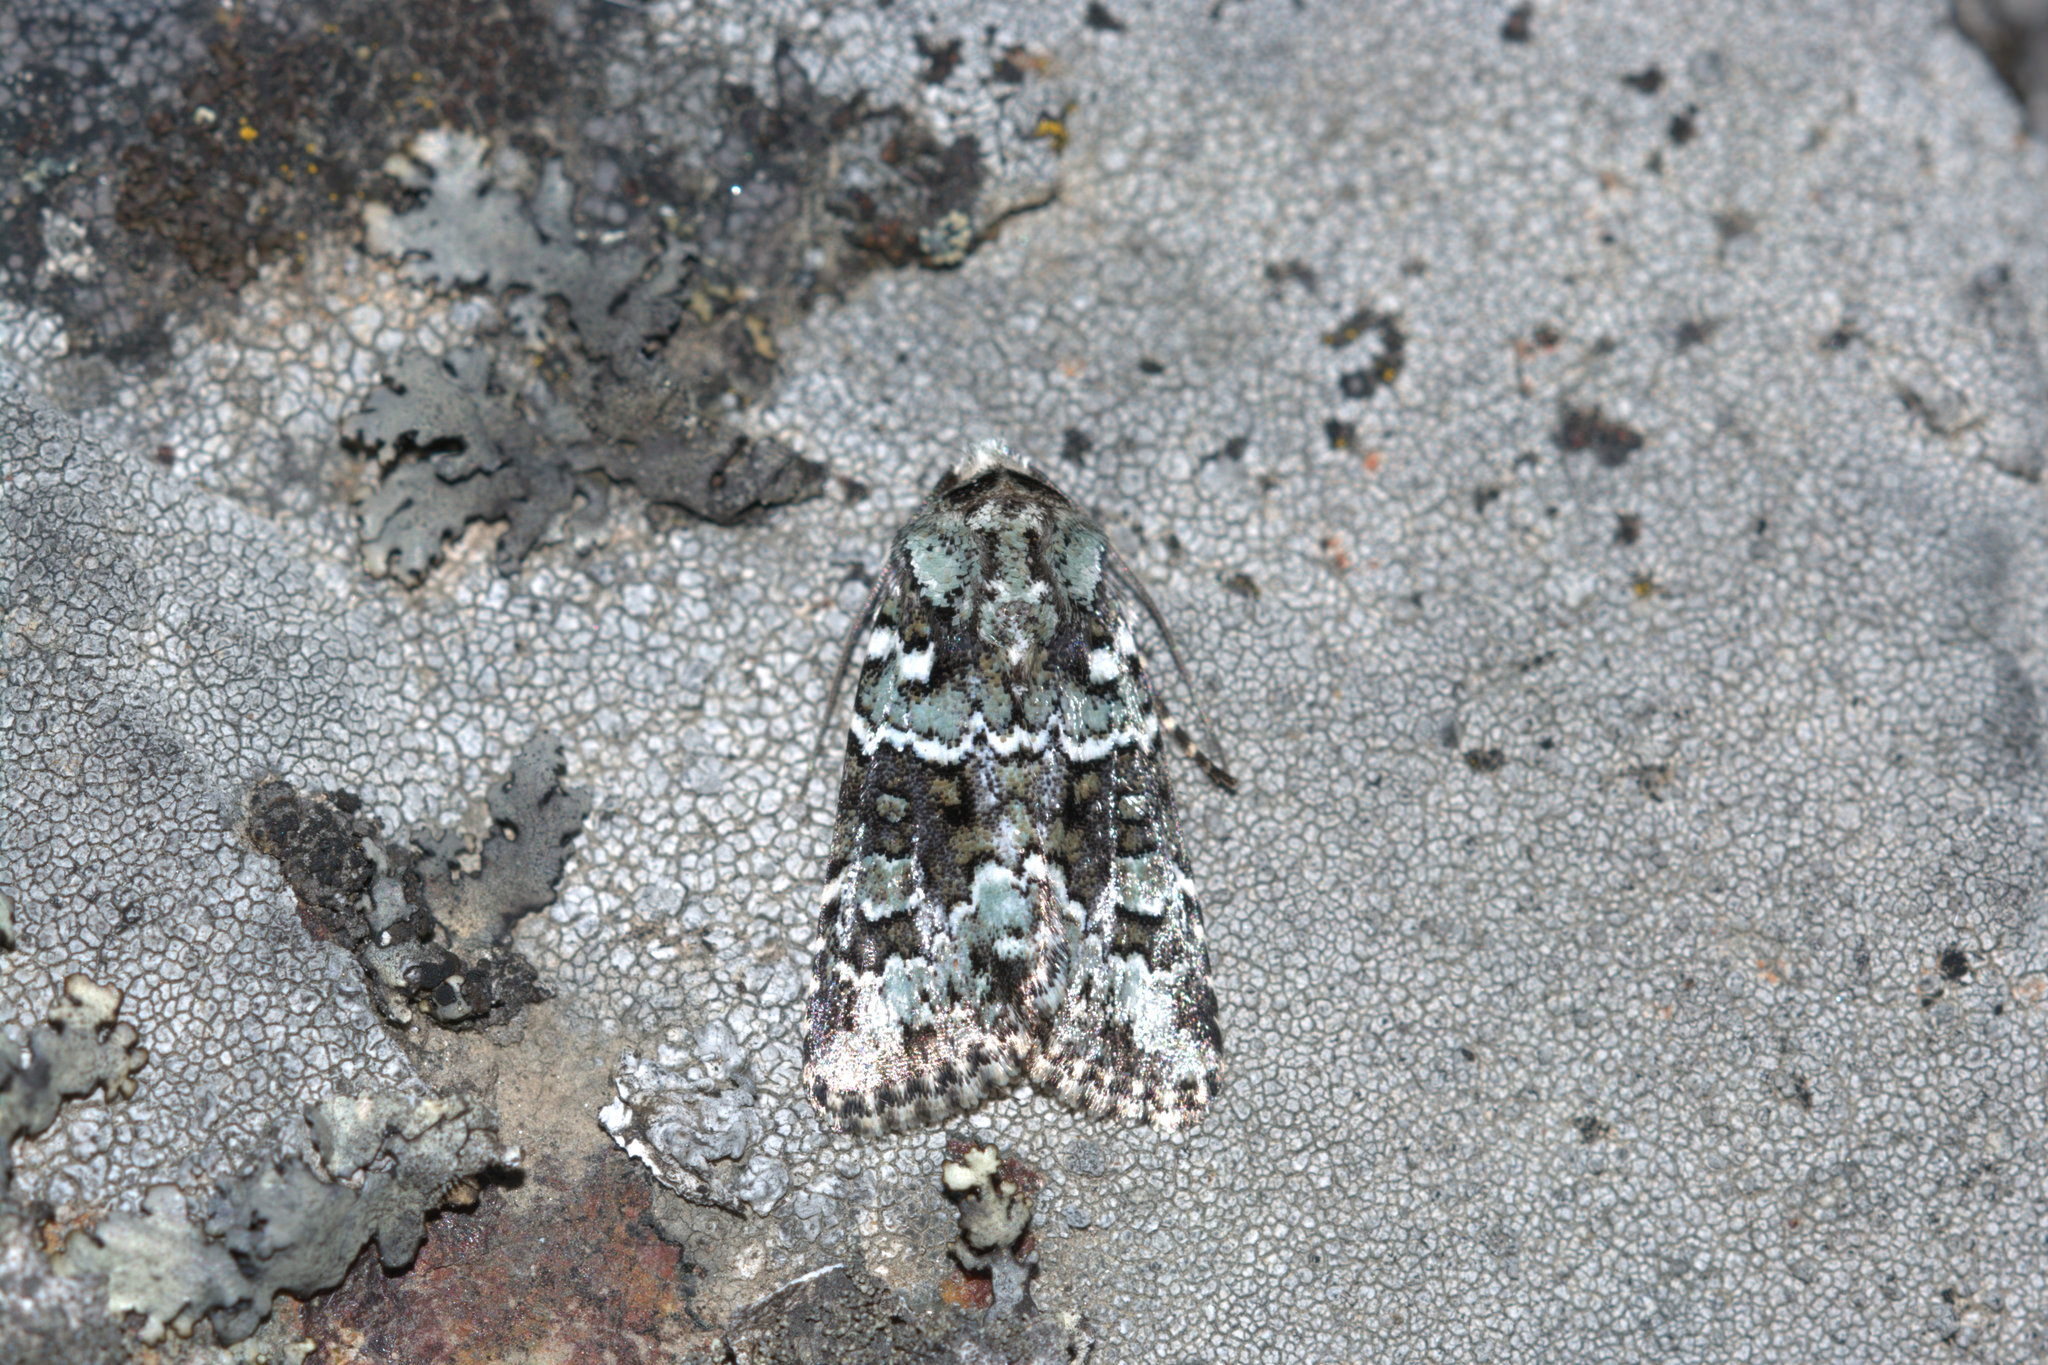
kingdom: Animalia
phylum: Arthropoda
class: Insecta
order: Lepidoptera
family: Noctuidae
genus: Lacinipolia
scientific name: Lacinipolia strigicollis
